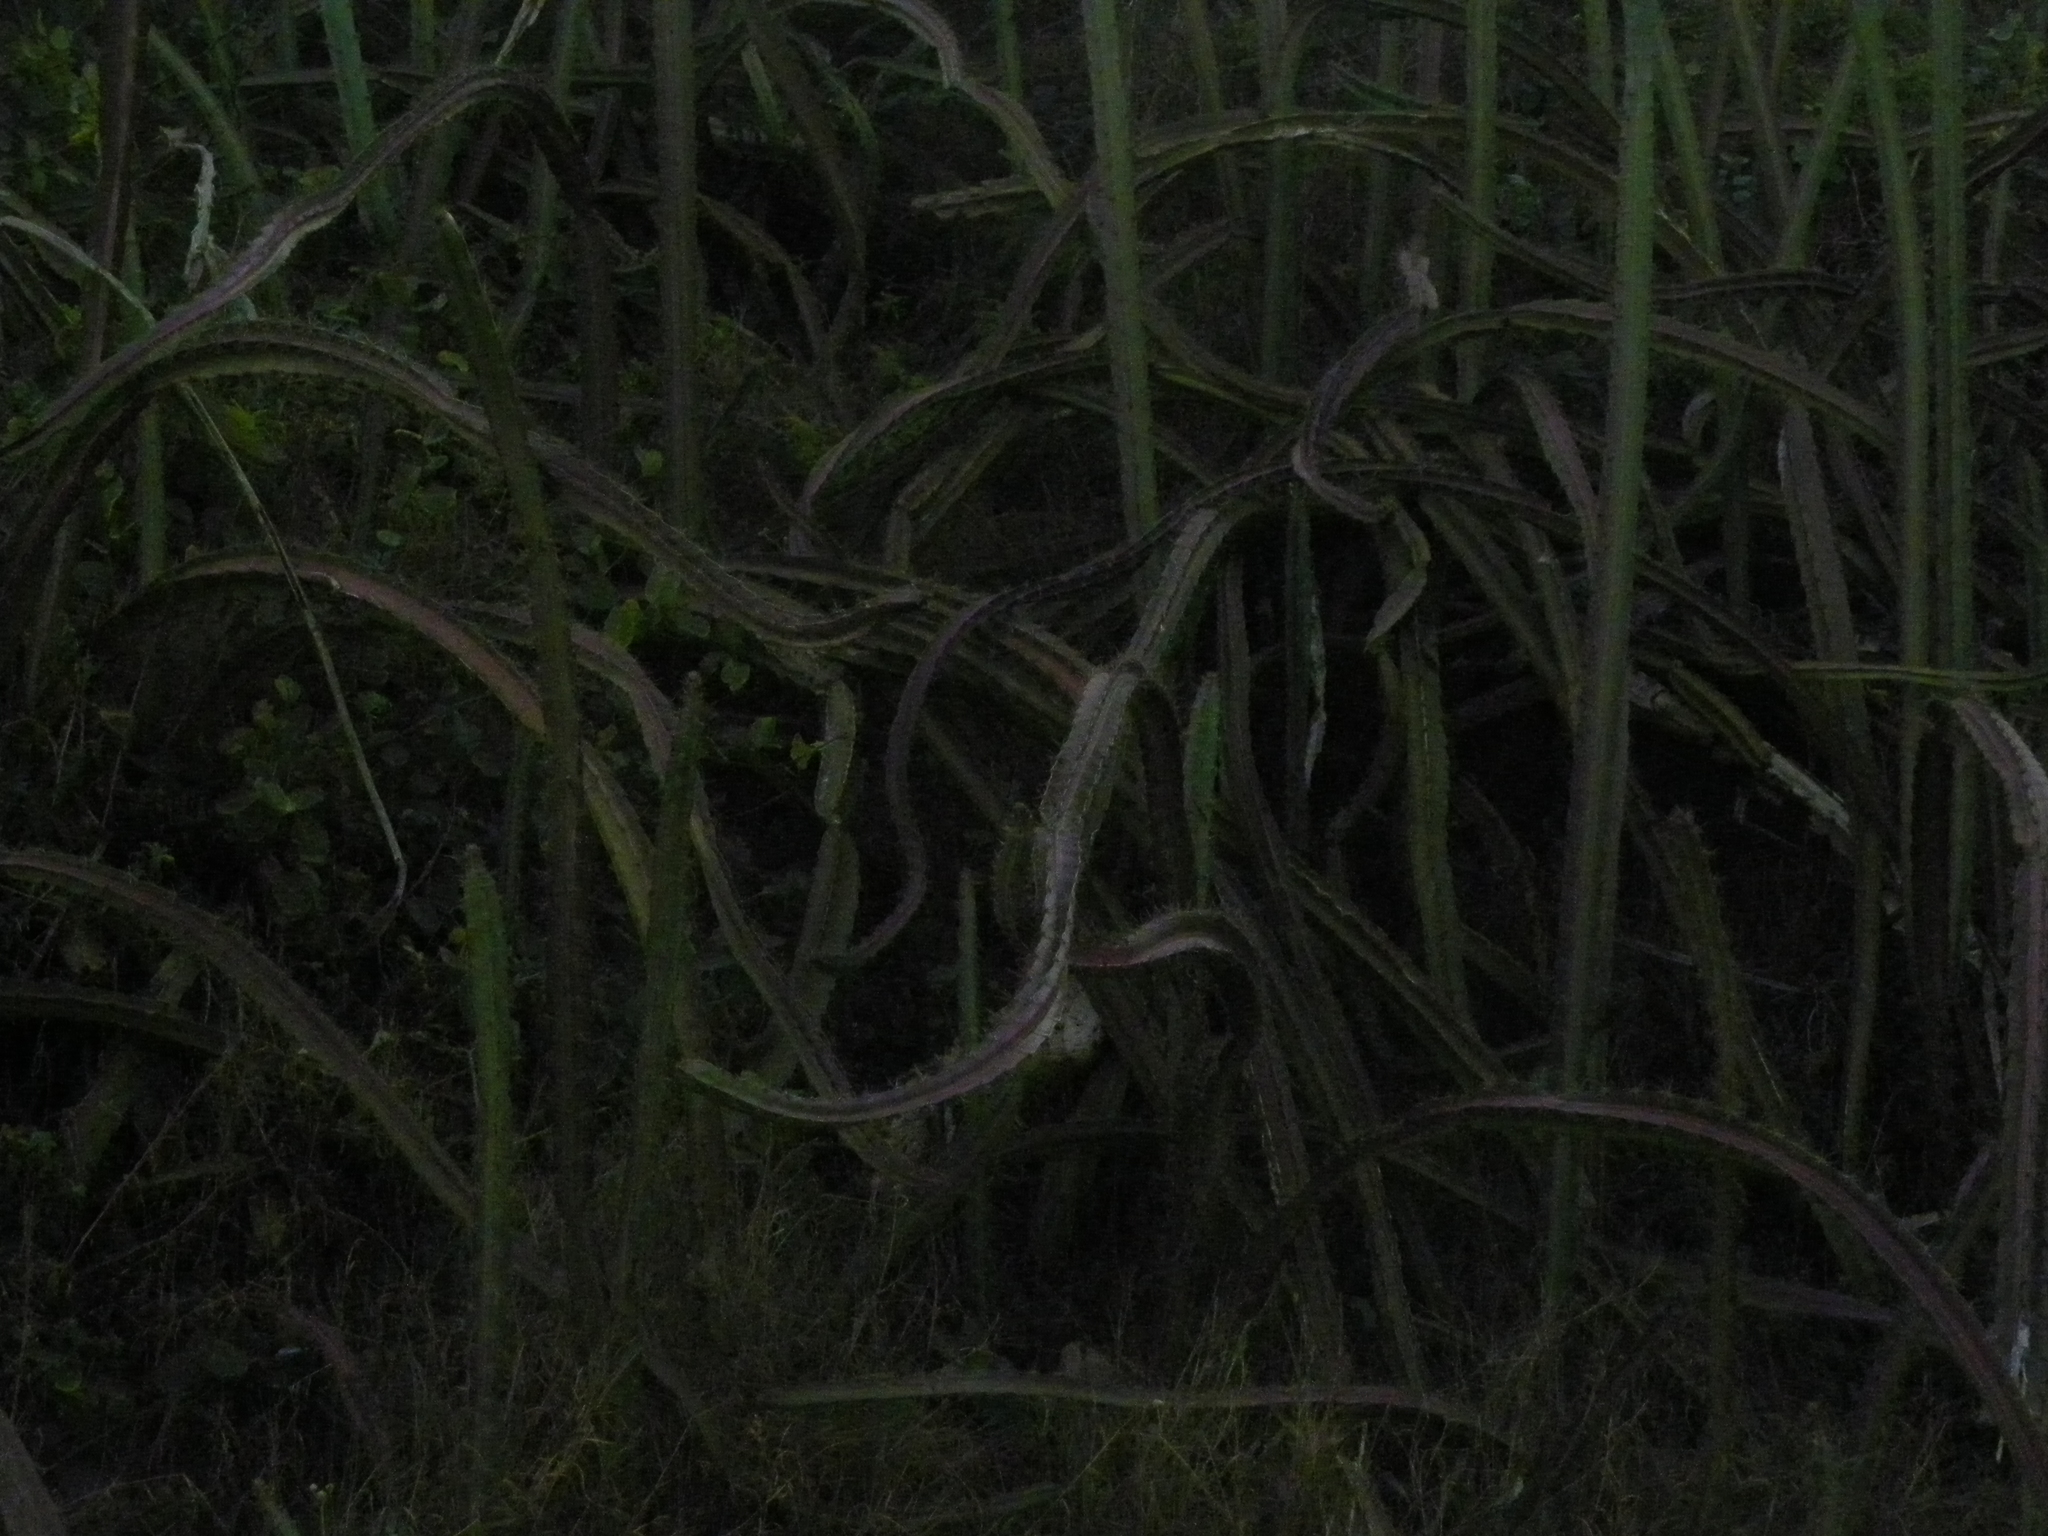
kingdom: Plantae
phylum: Tracheophyta
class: Magnoliopsida
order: Caryophyllales
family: Cactaceae
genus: Acanthocereus
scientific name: Acanthocereus tetragonus
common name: Triangle cactus
